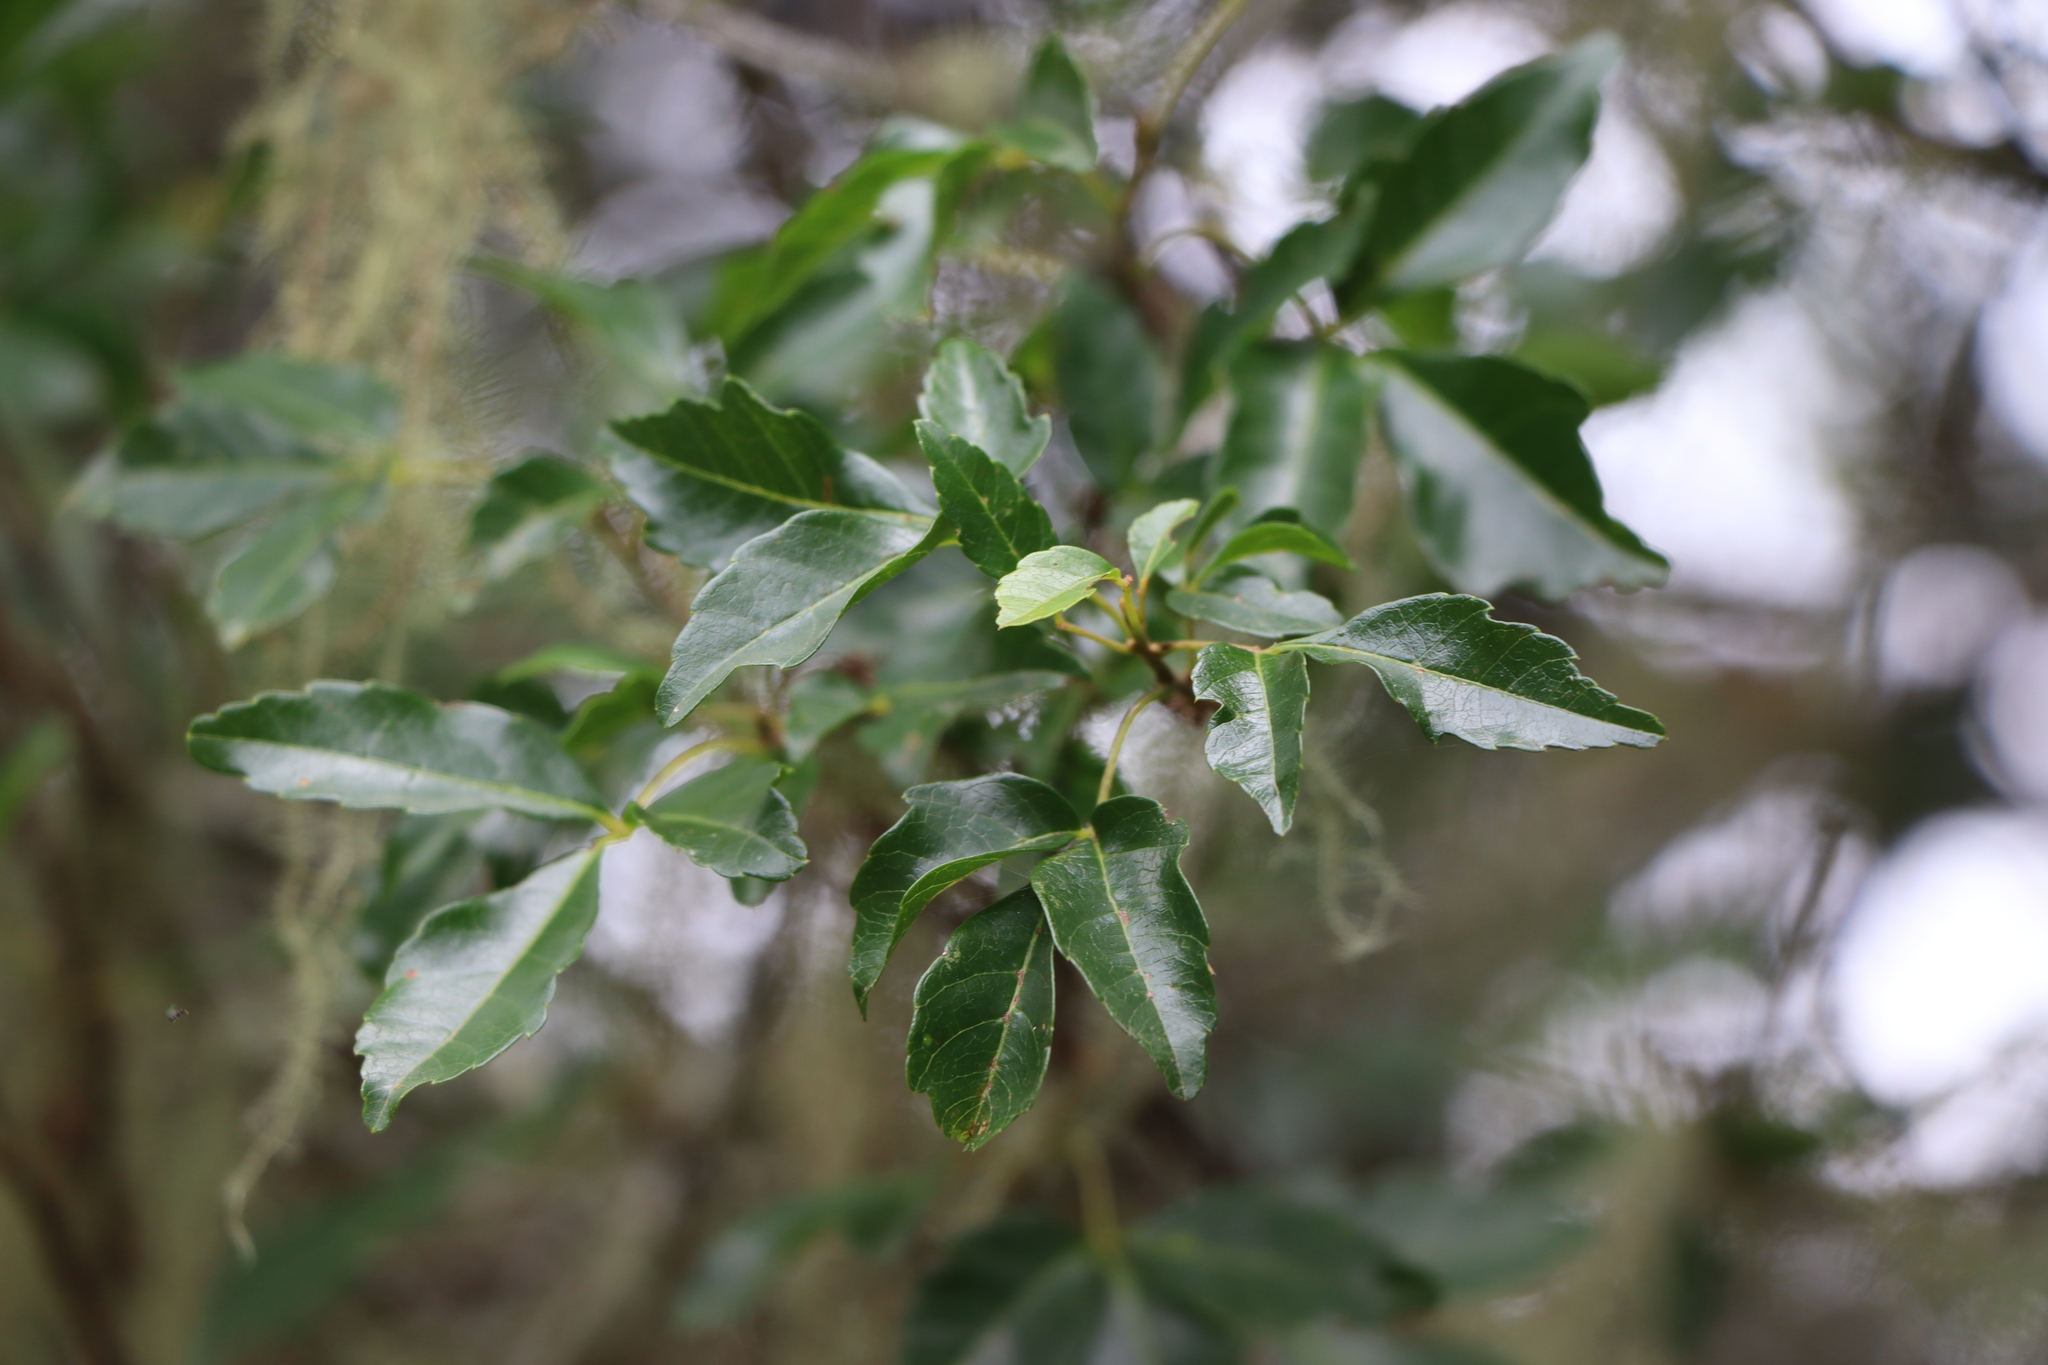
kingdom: Plantae
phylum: Tracheophyta
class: Magnoliopsida
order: Sapindales
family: Sapindaceae
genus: Allophylus
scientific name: Allophylus edulis
